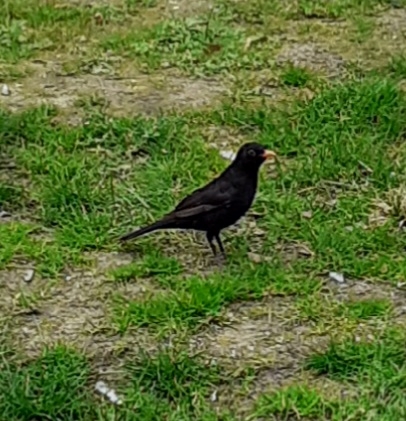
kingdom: Animalia
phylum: Chordata
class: Aves
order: Passeriformes
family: Turdidae
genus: Turdus
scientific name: Turdus merula
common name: Common blackbird
